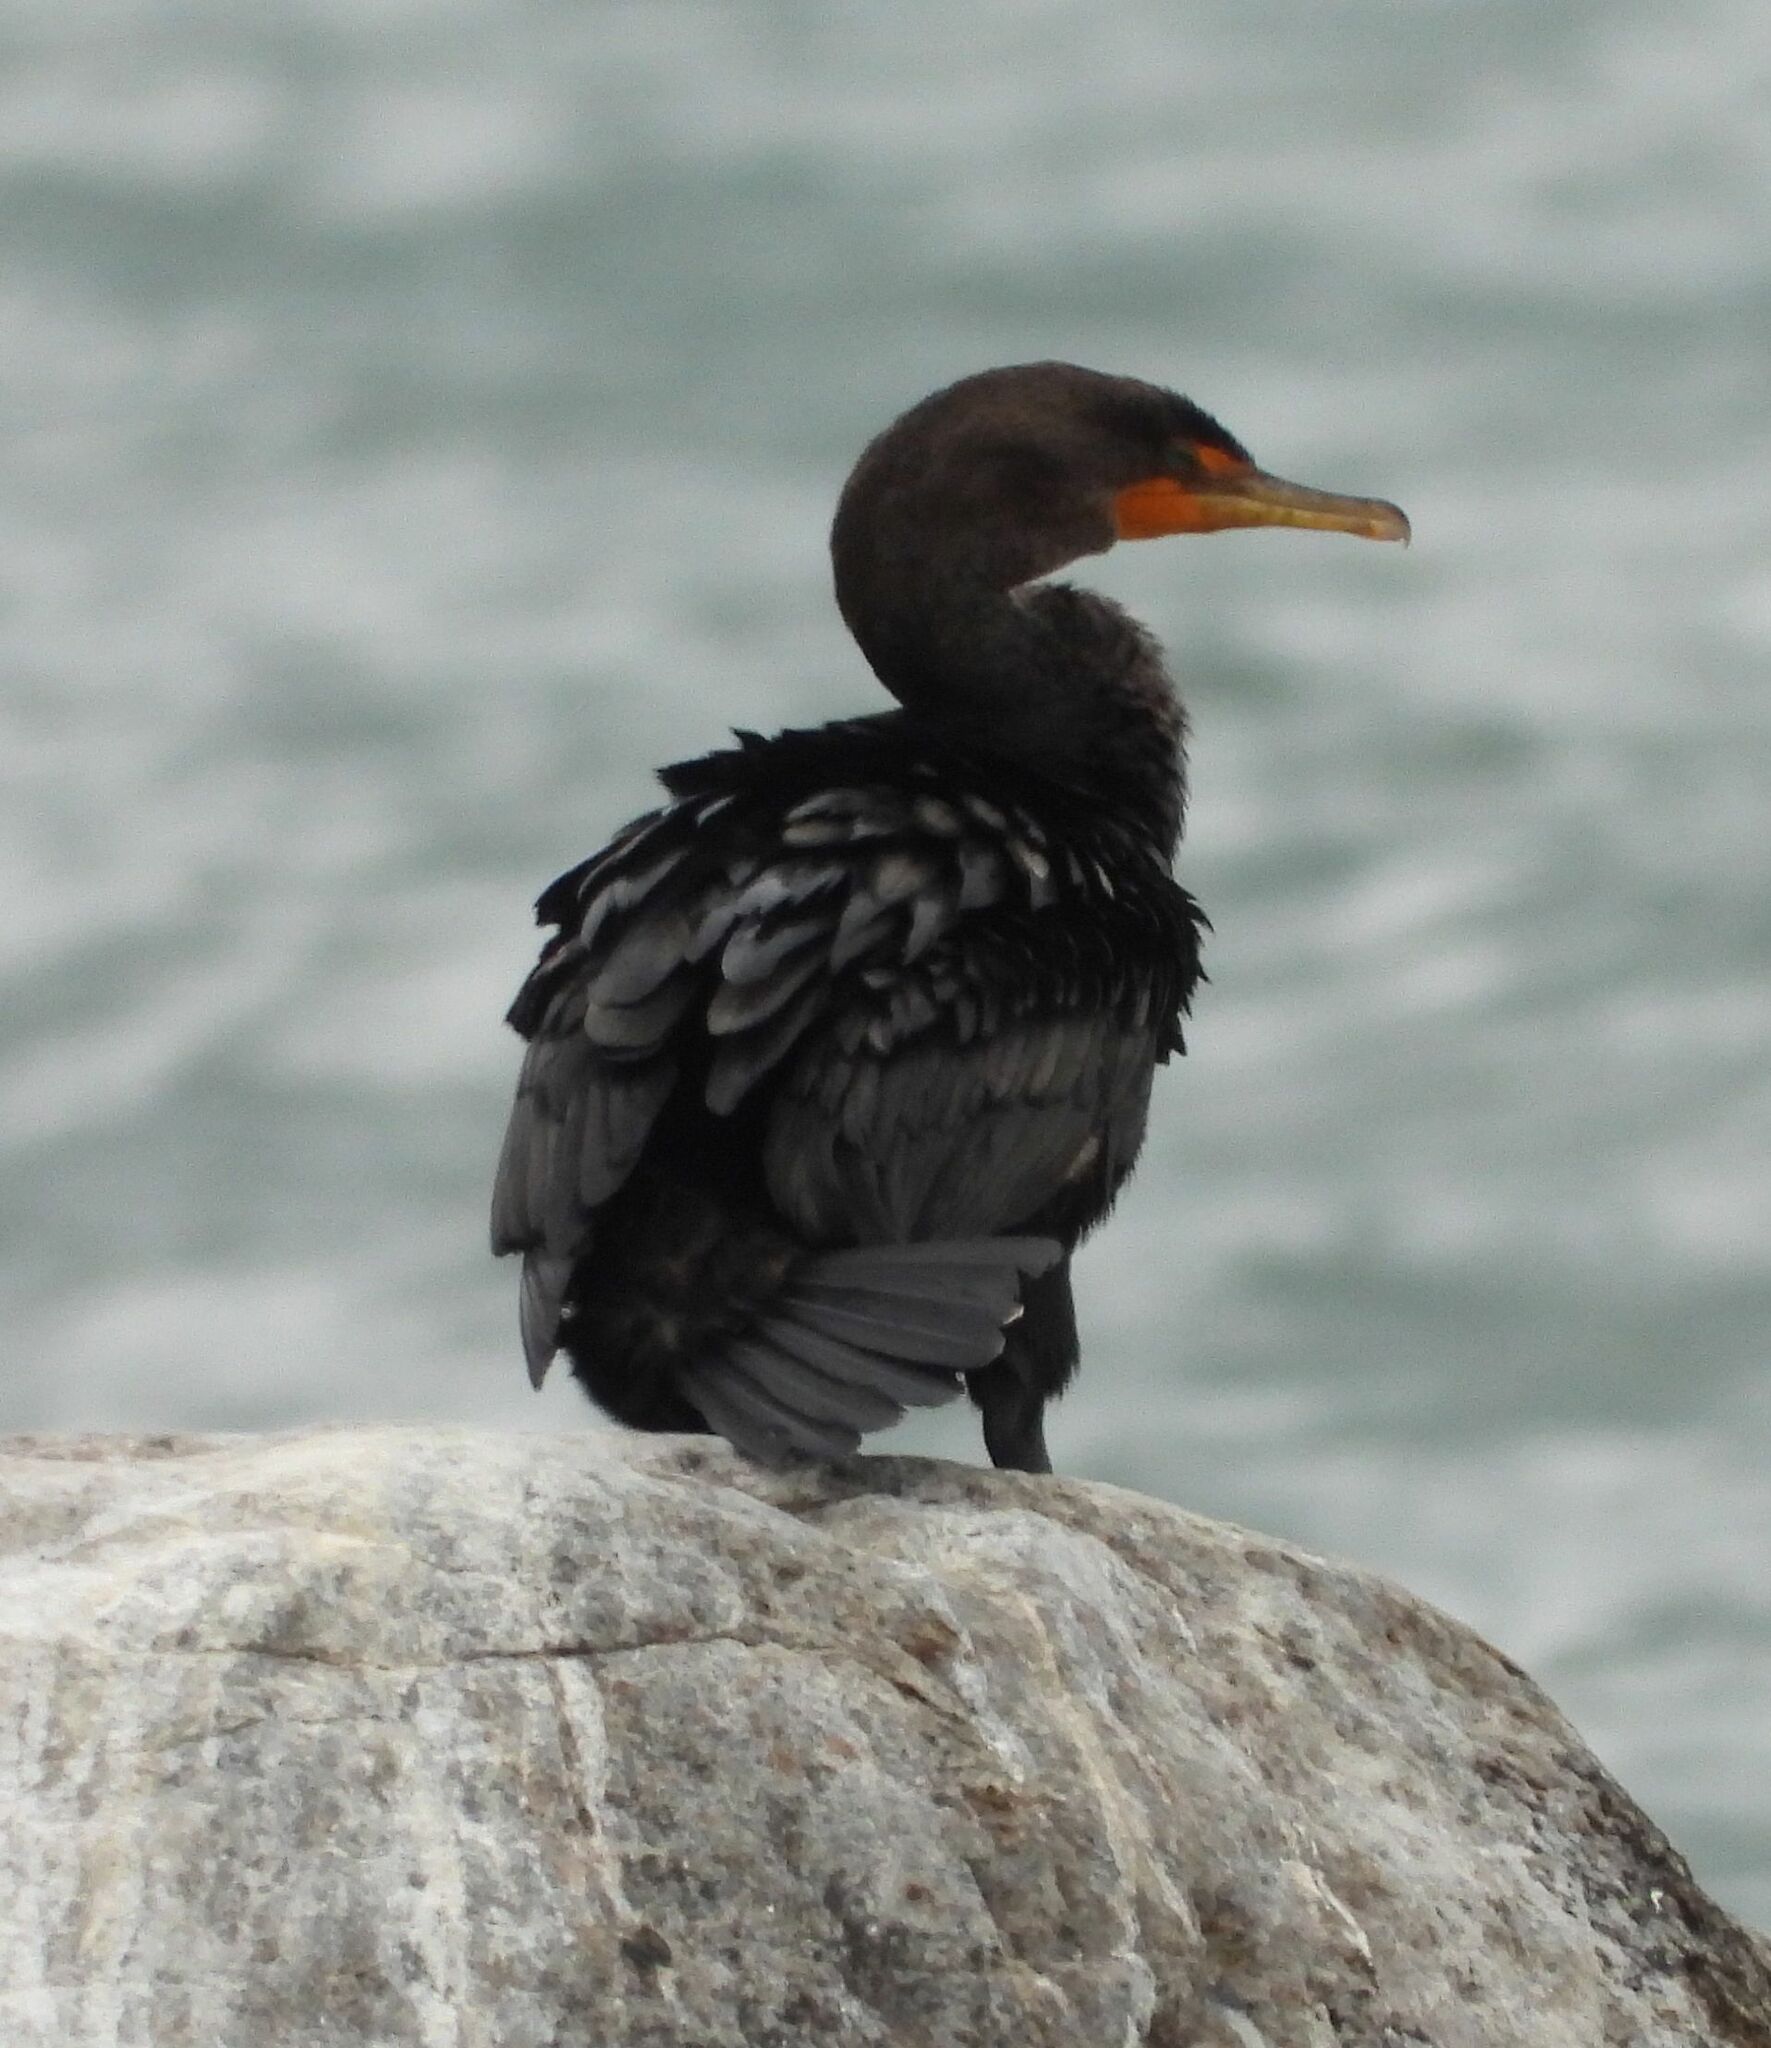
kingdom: Animalia
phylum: Chordata
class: Aves
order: Suliformes
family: Phalacrocoracidae
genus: Phalacrocorax
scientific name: Phalacrocorax auritus
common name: Double-crested cormorant
